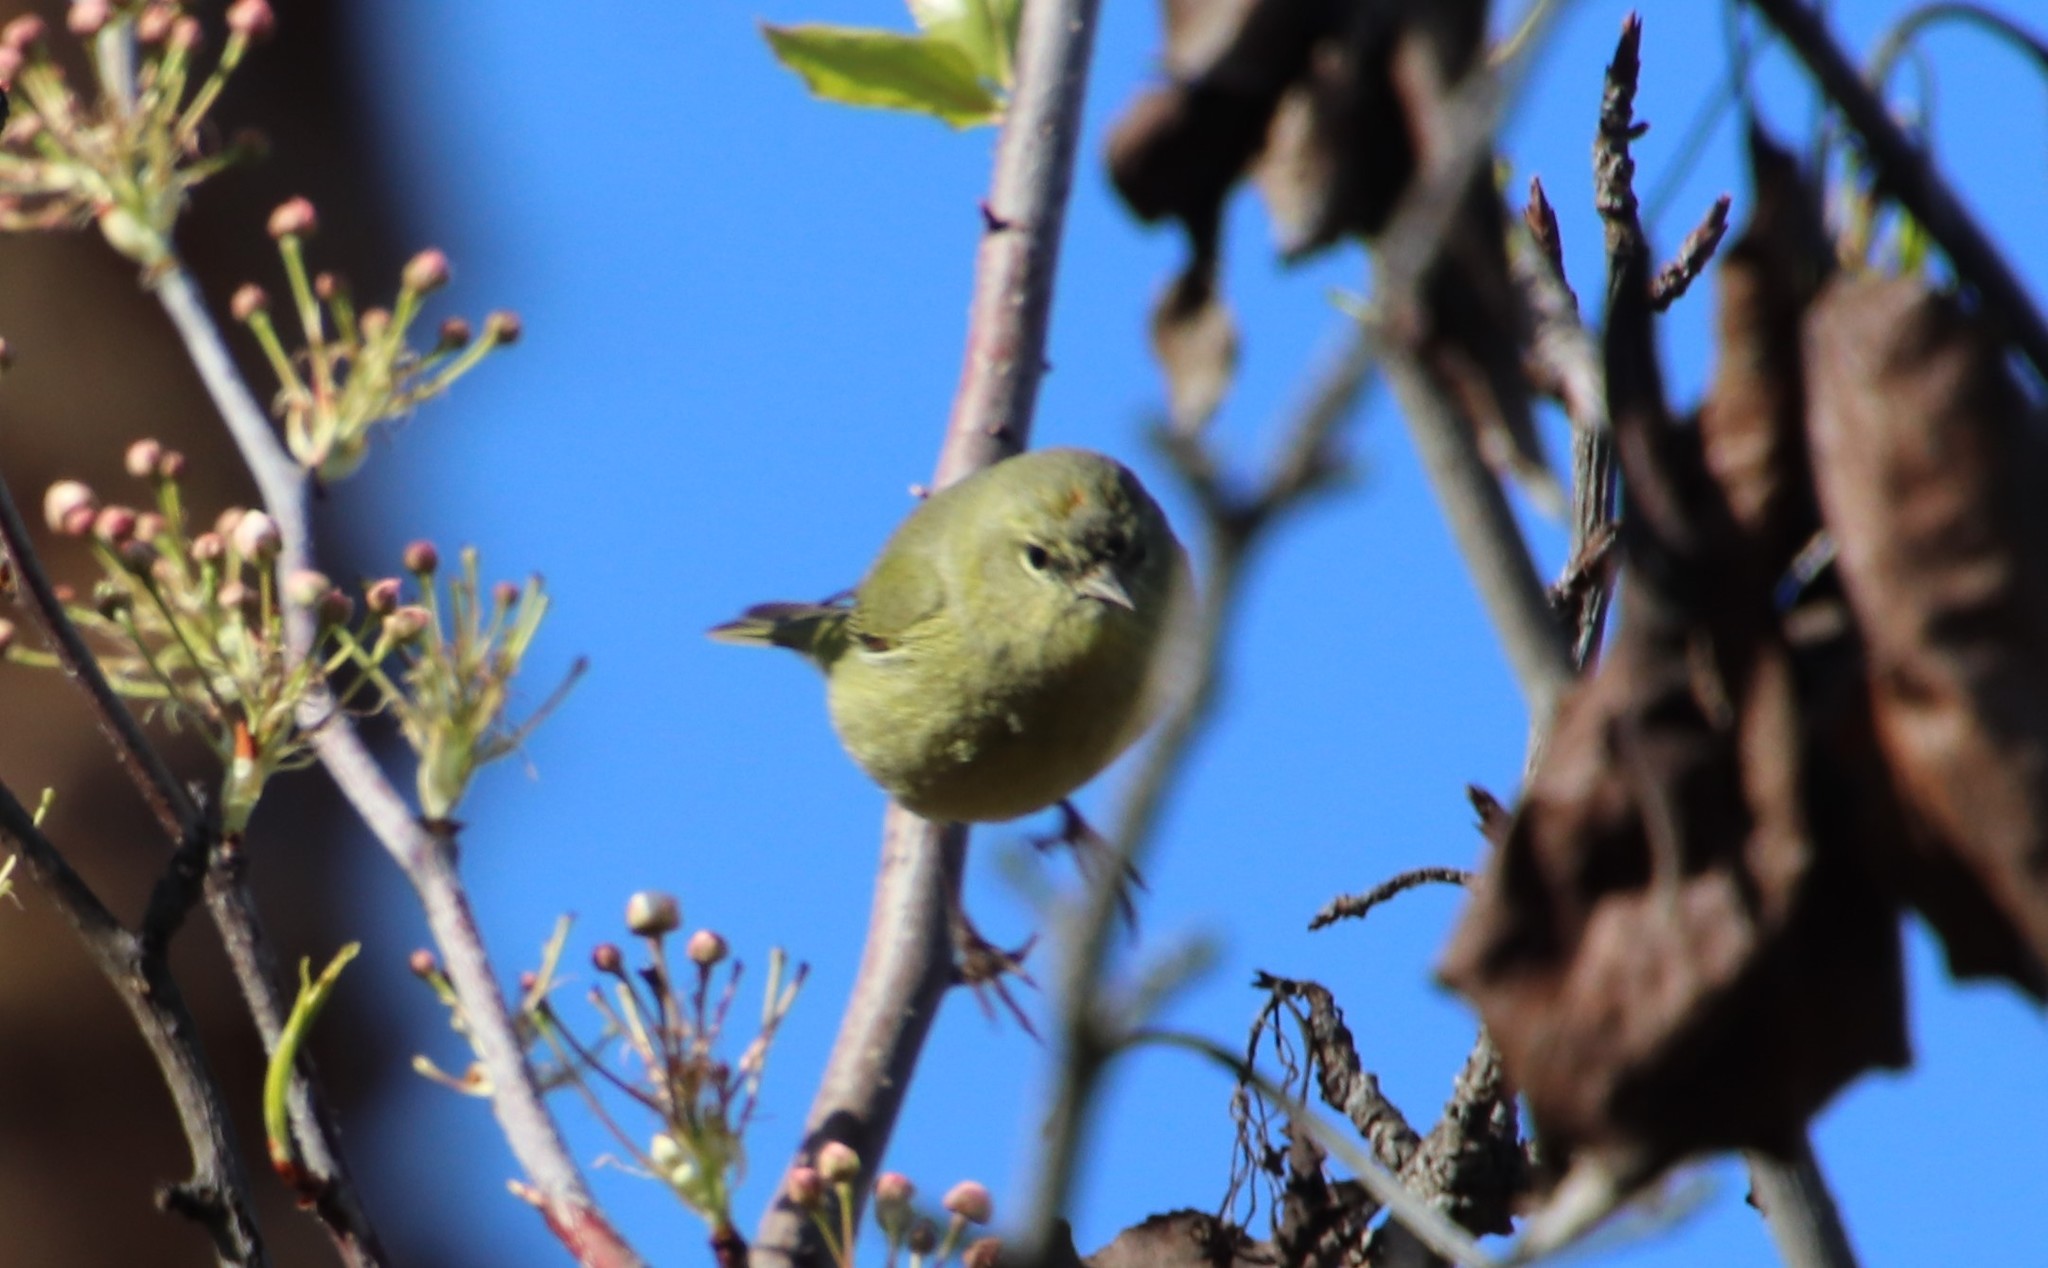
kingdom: Animalia
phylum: Chordata
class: Aves
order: Passeriformes
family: Parulidae
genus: Leiothlypis
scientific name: Leiothlypis celata
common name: Orange-crowned warbler
